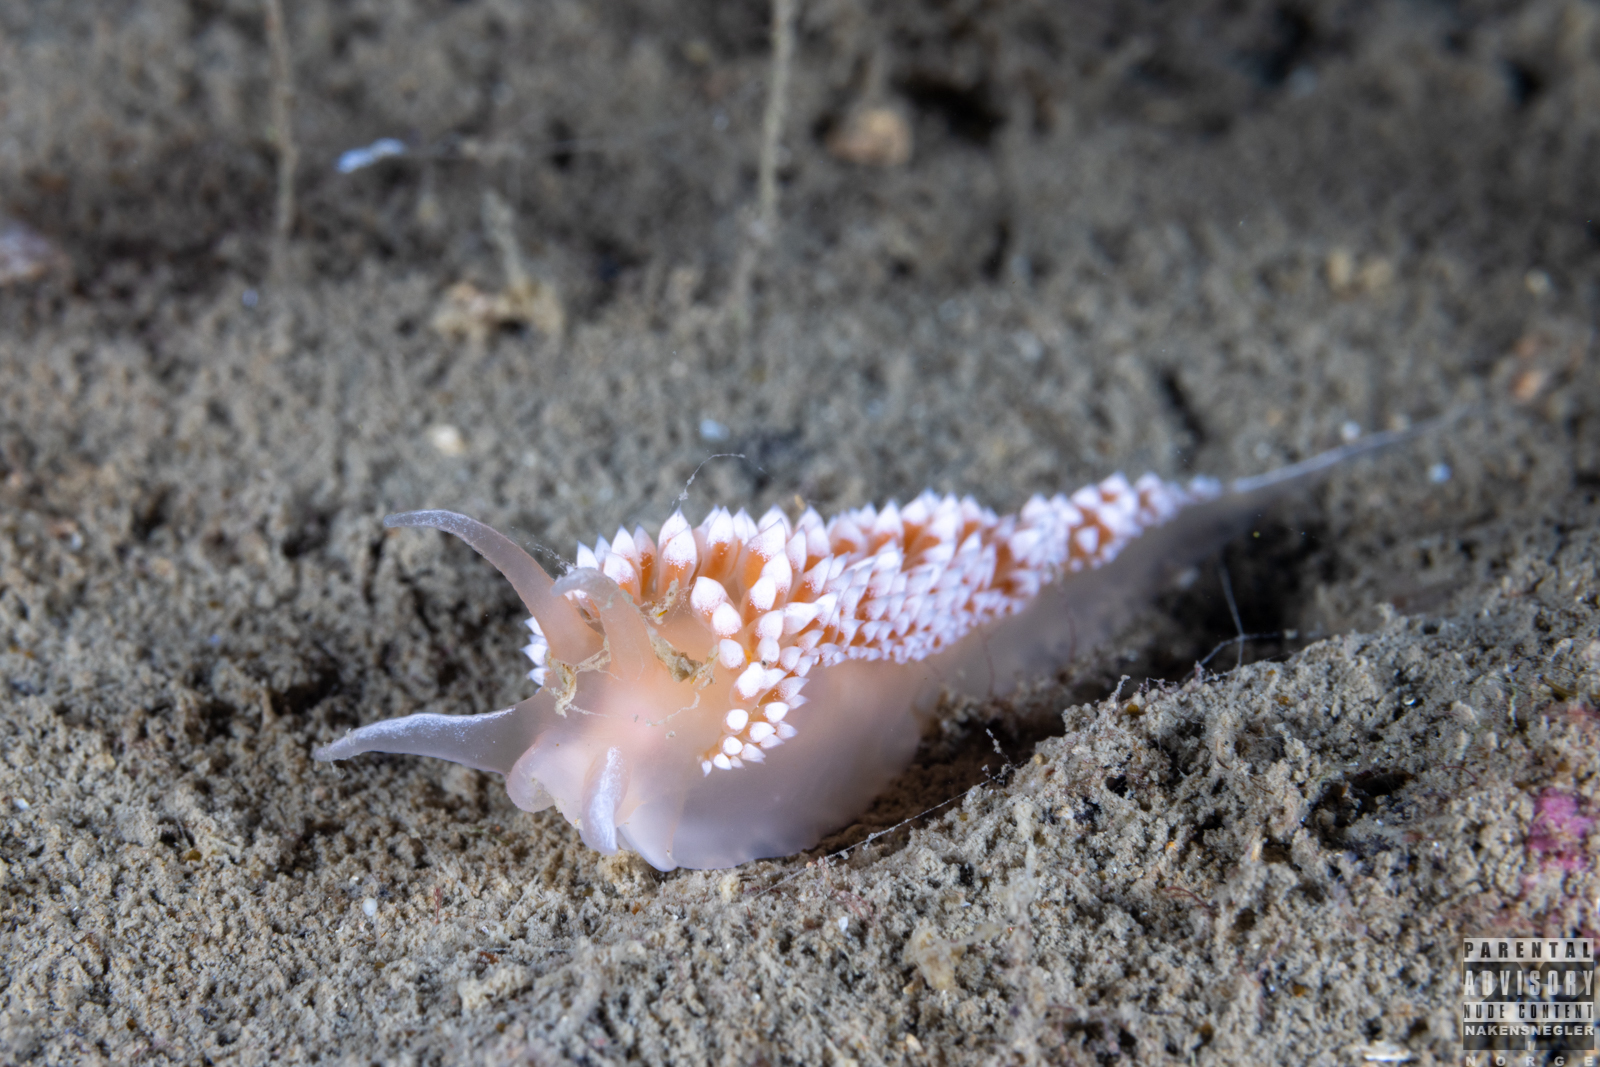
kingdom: Animalia
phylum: Mollusca
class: Gastropoda
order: Nudibranchia
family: Coryphellidae
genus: Coryphella
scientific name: Coryphella verrucosa
